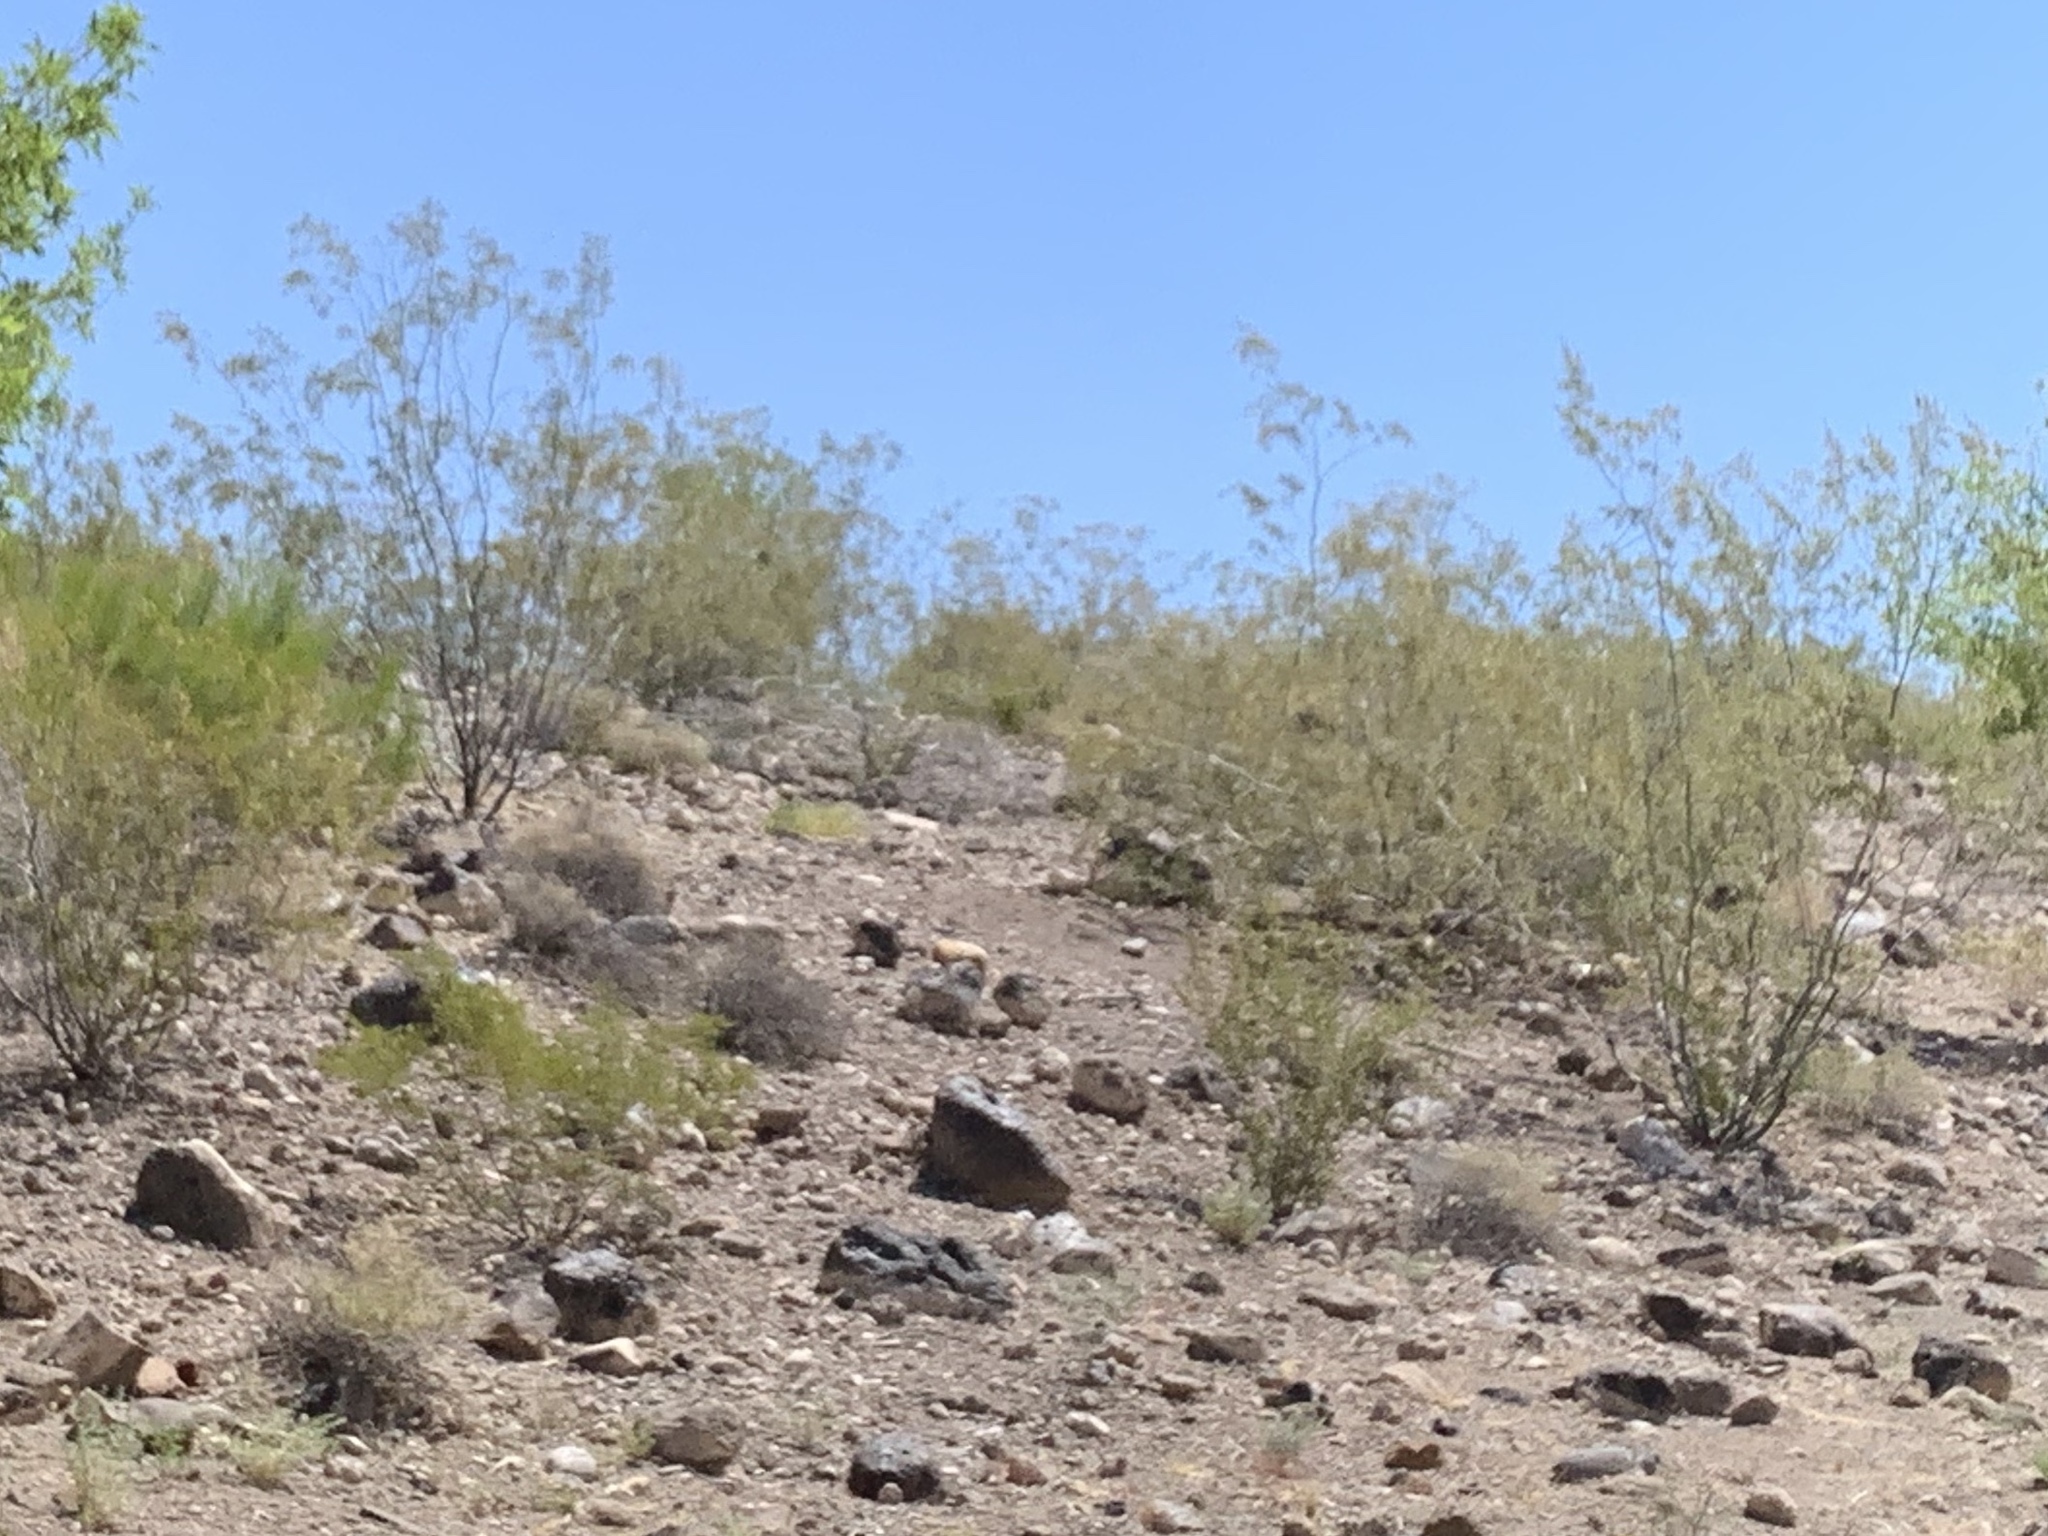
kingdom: Plantae
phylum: Tracheophyta
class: Magnoliopsida
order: Zygophyllales
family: Zygophyllaceae
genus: Larrea
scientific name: Larrea tridentata
